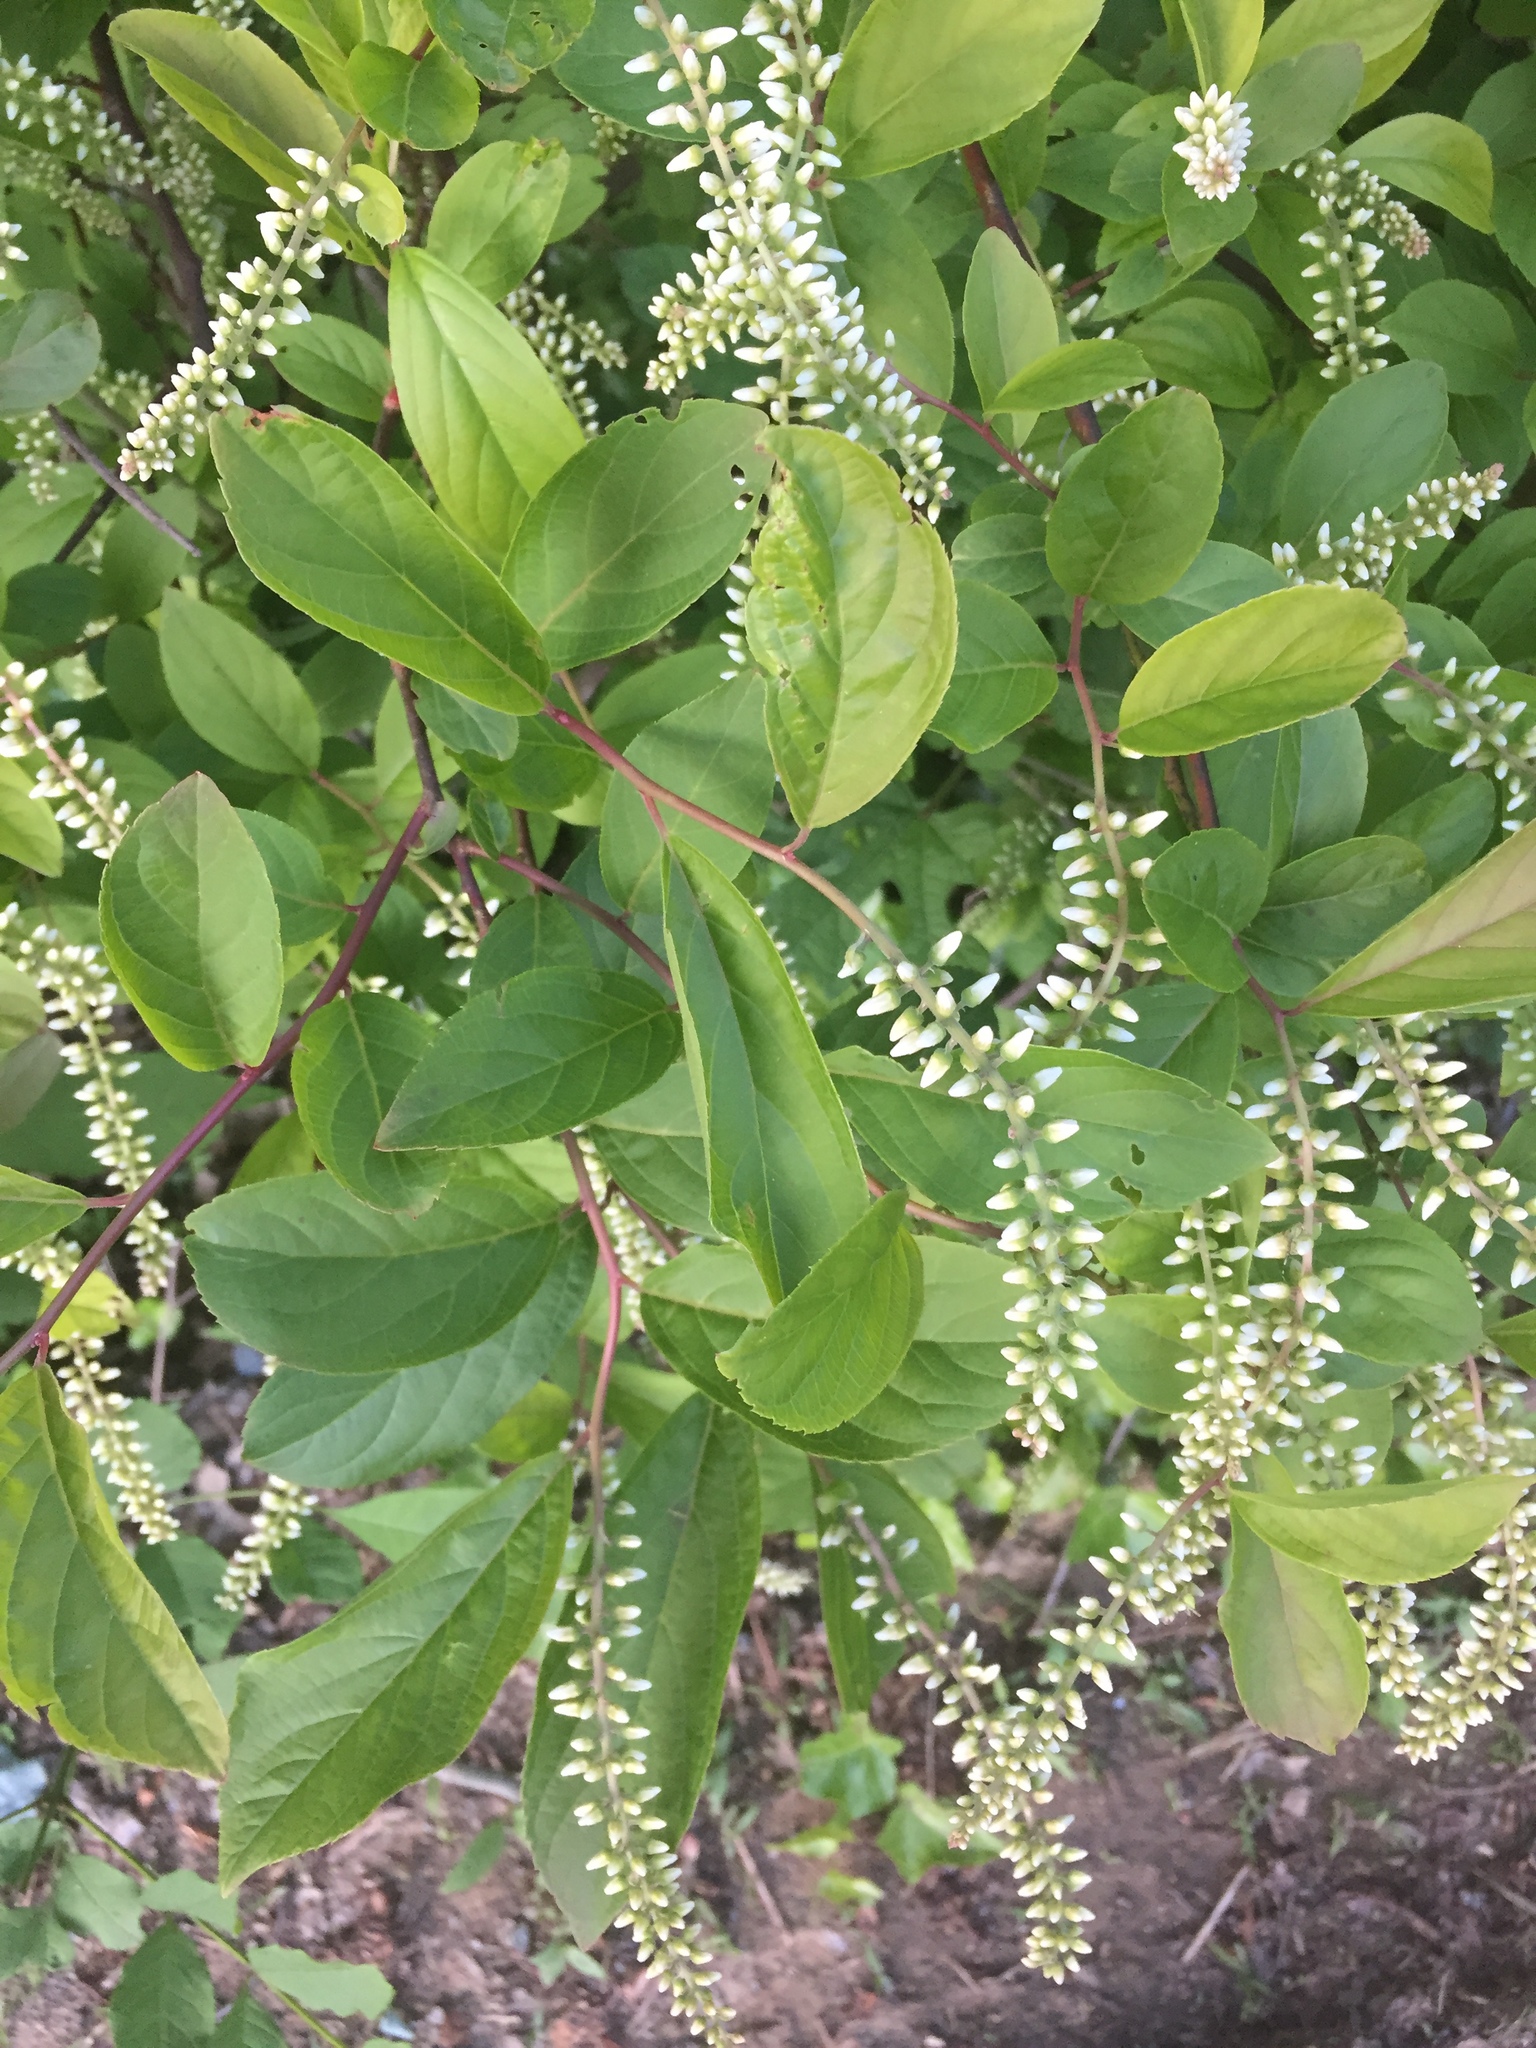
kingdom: Plantae
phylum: Tracheophyta
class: Magnoliopsida
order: Saxifragales
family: Iteaceae
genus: Itea
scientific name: Itea virginica
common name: Sweetspire
